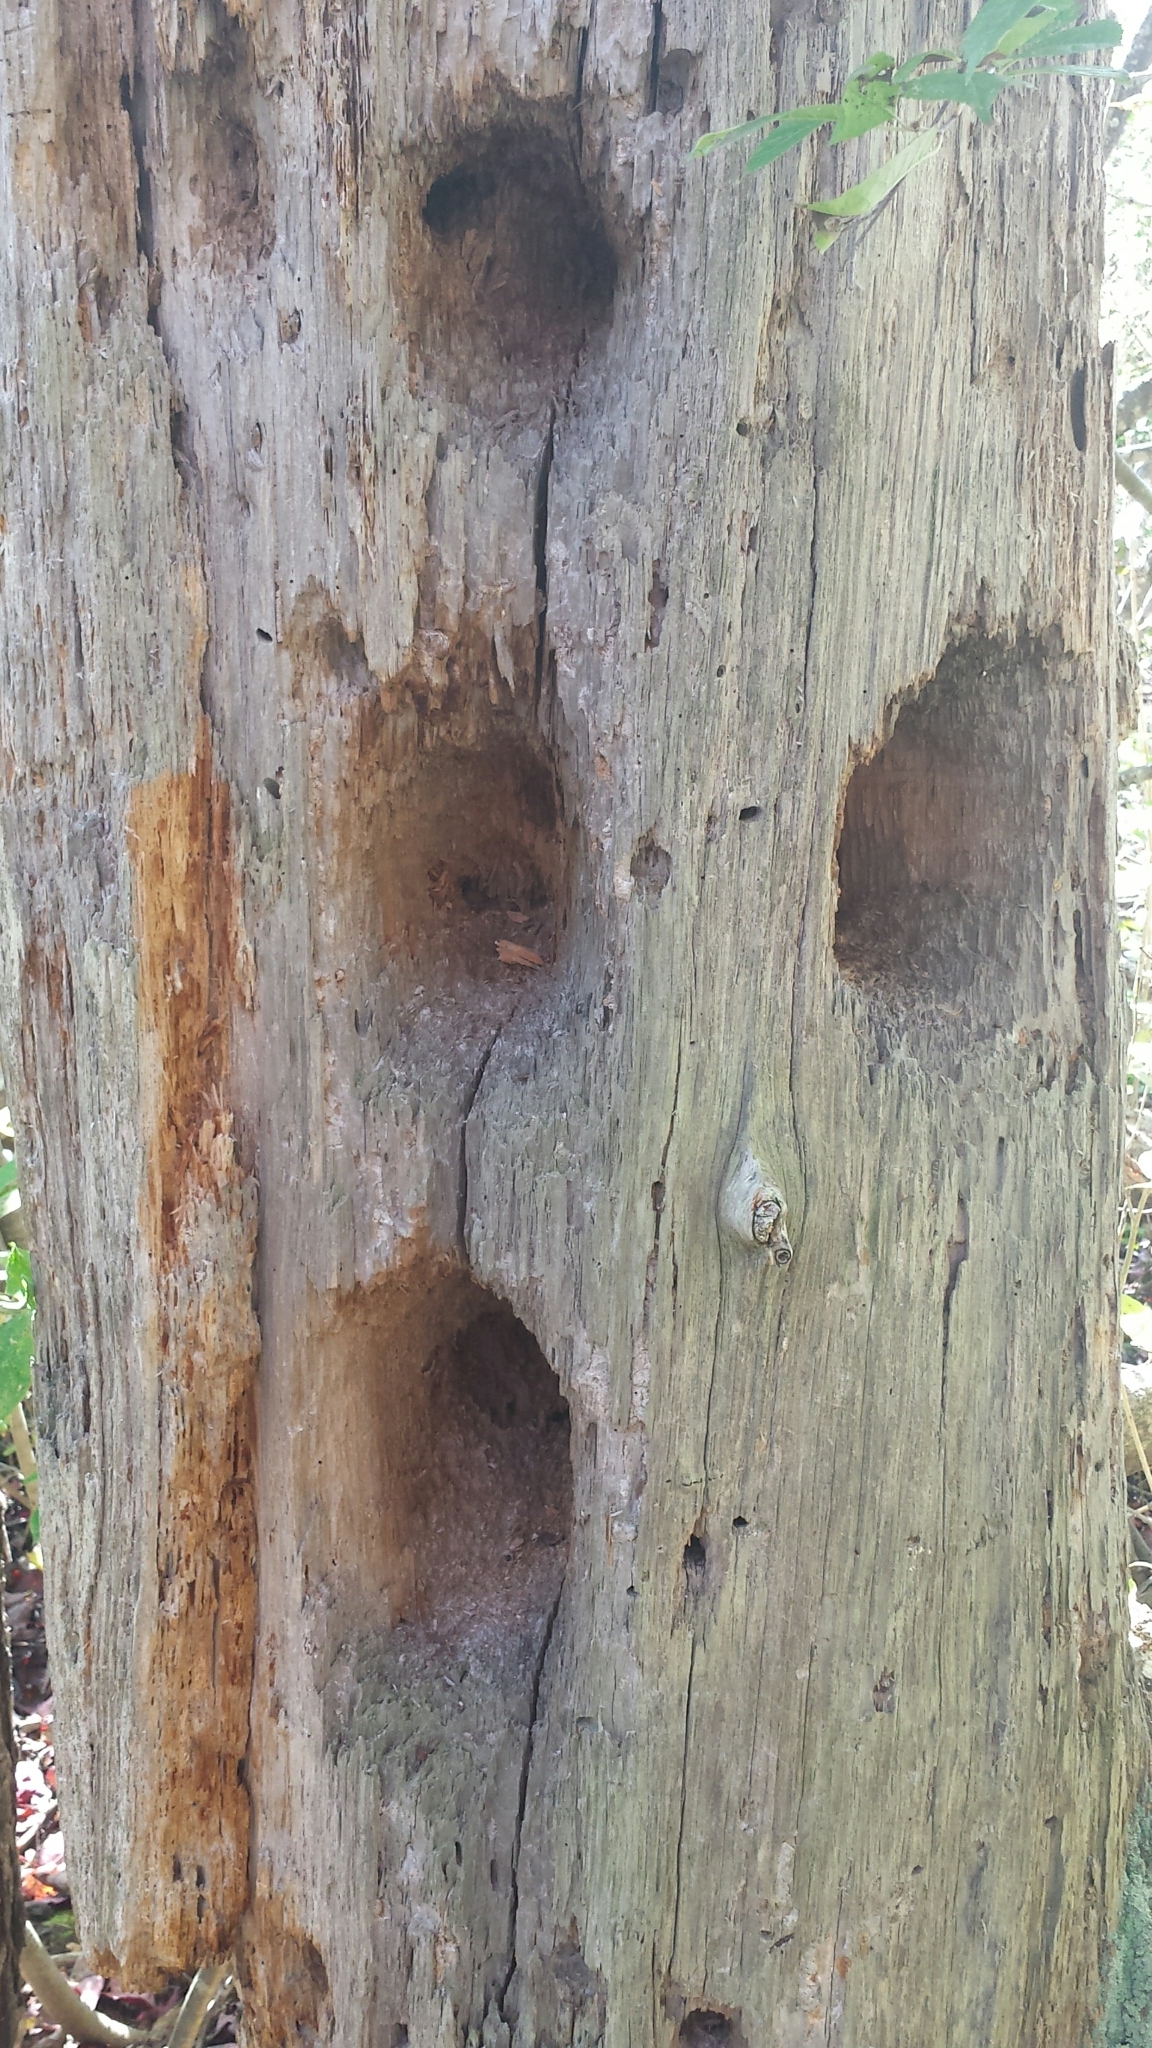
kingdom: Animalia
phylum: Chordata
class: Aves
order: Piciformes
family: Picidae
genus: Dryocopus
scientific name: Dryocopus pileatus
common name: Pileated woodpecker
